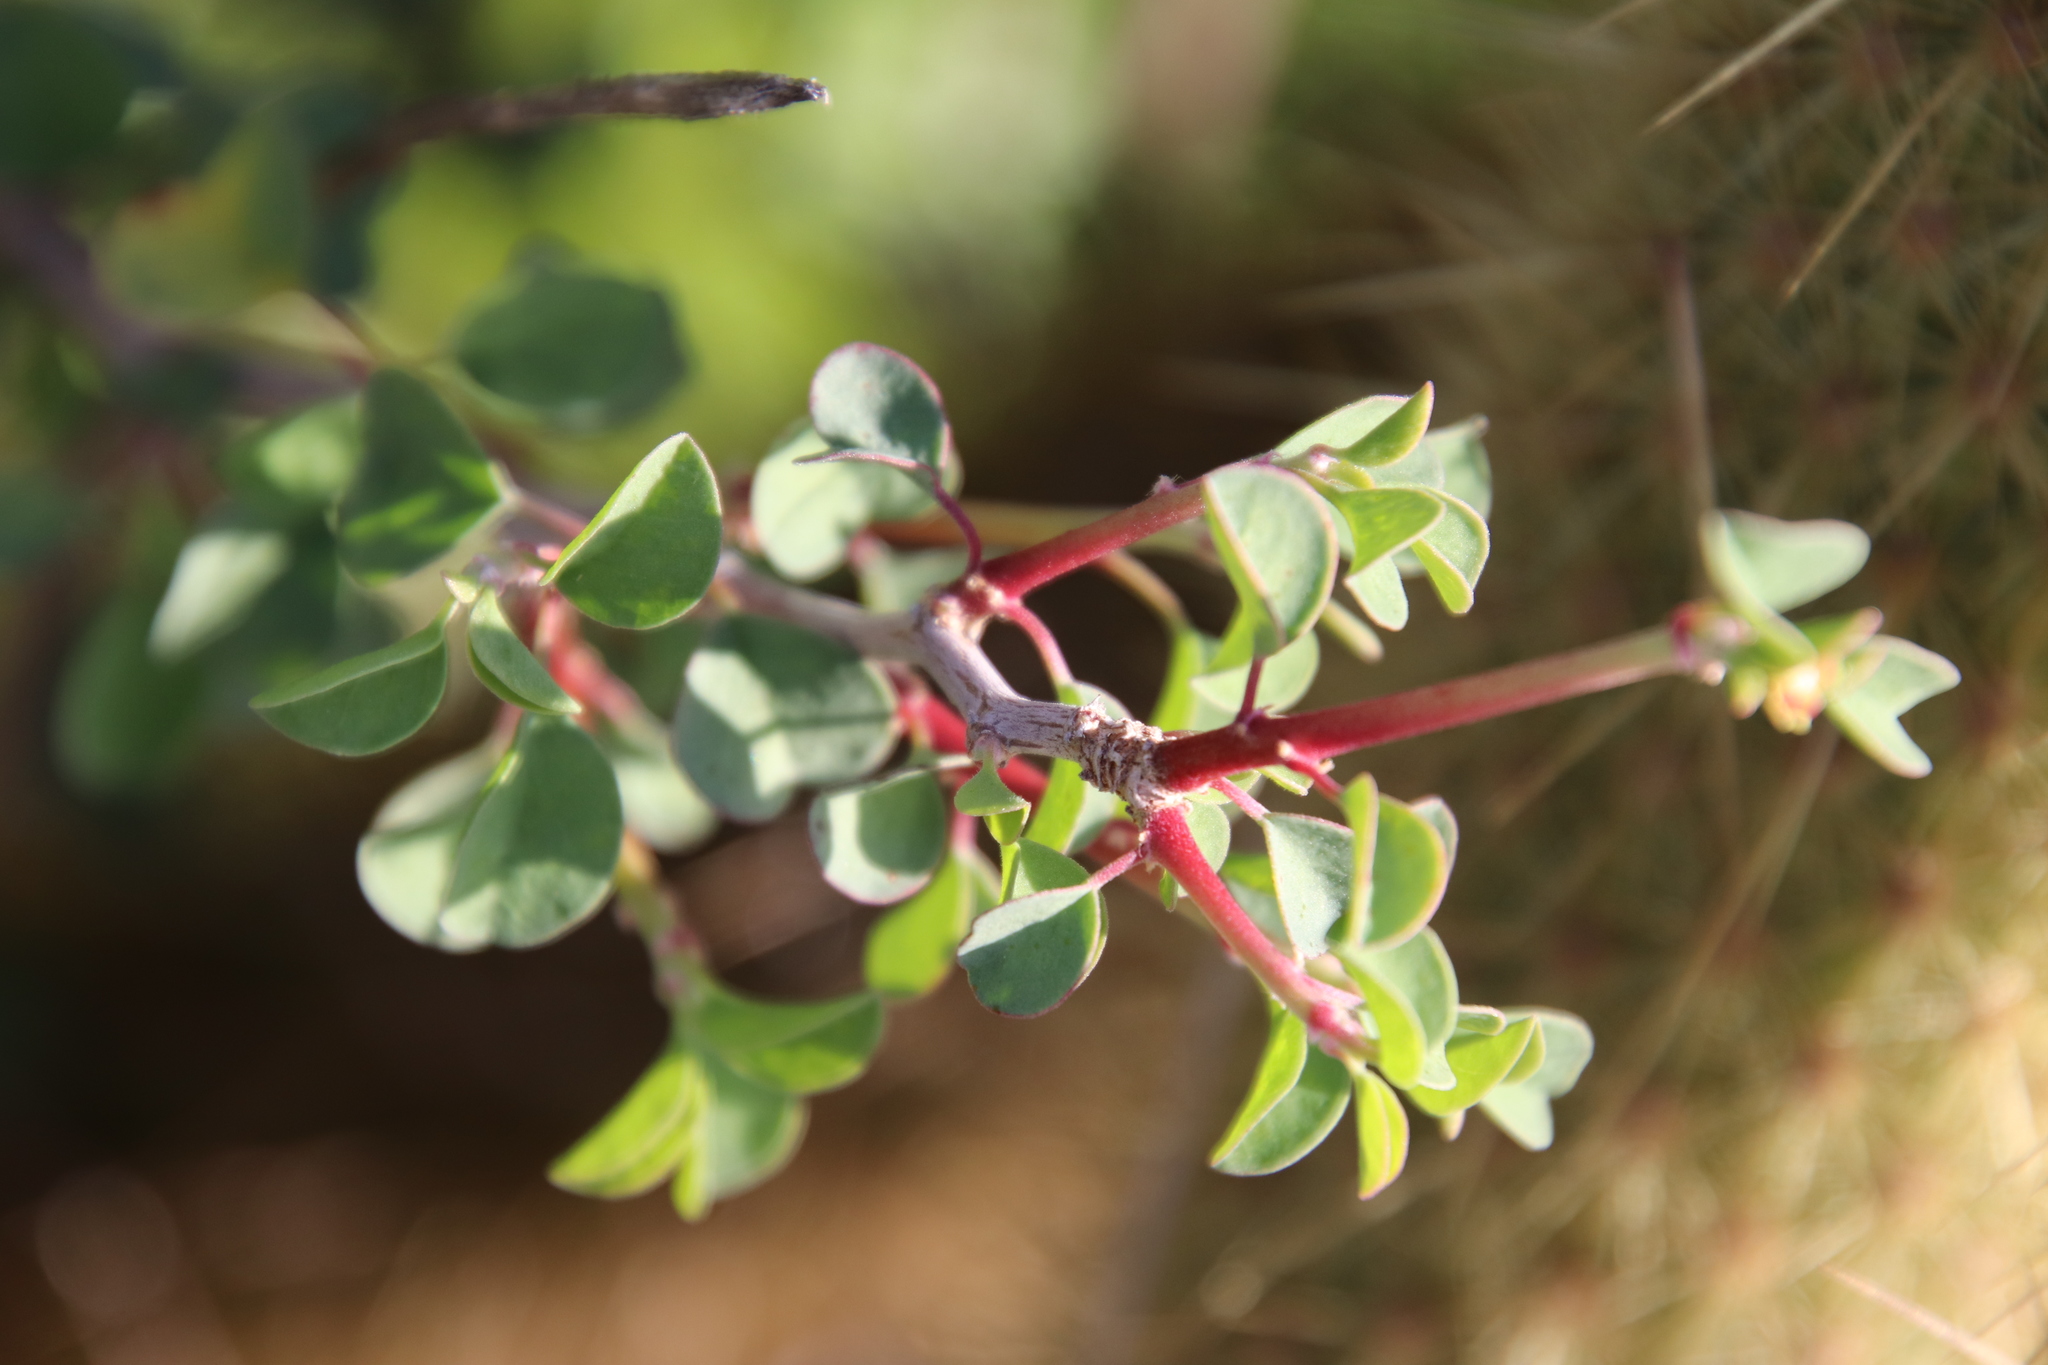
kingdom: Plantae
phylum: Tracheophyta
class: Magnoliopsida
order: Malpighiales
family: Euphorbiaceae
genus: Euphorbia
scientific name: Euphorbia misera
